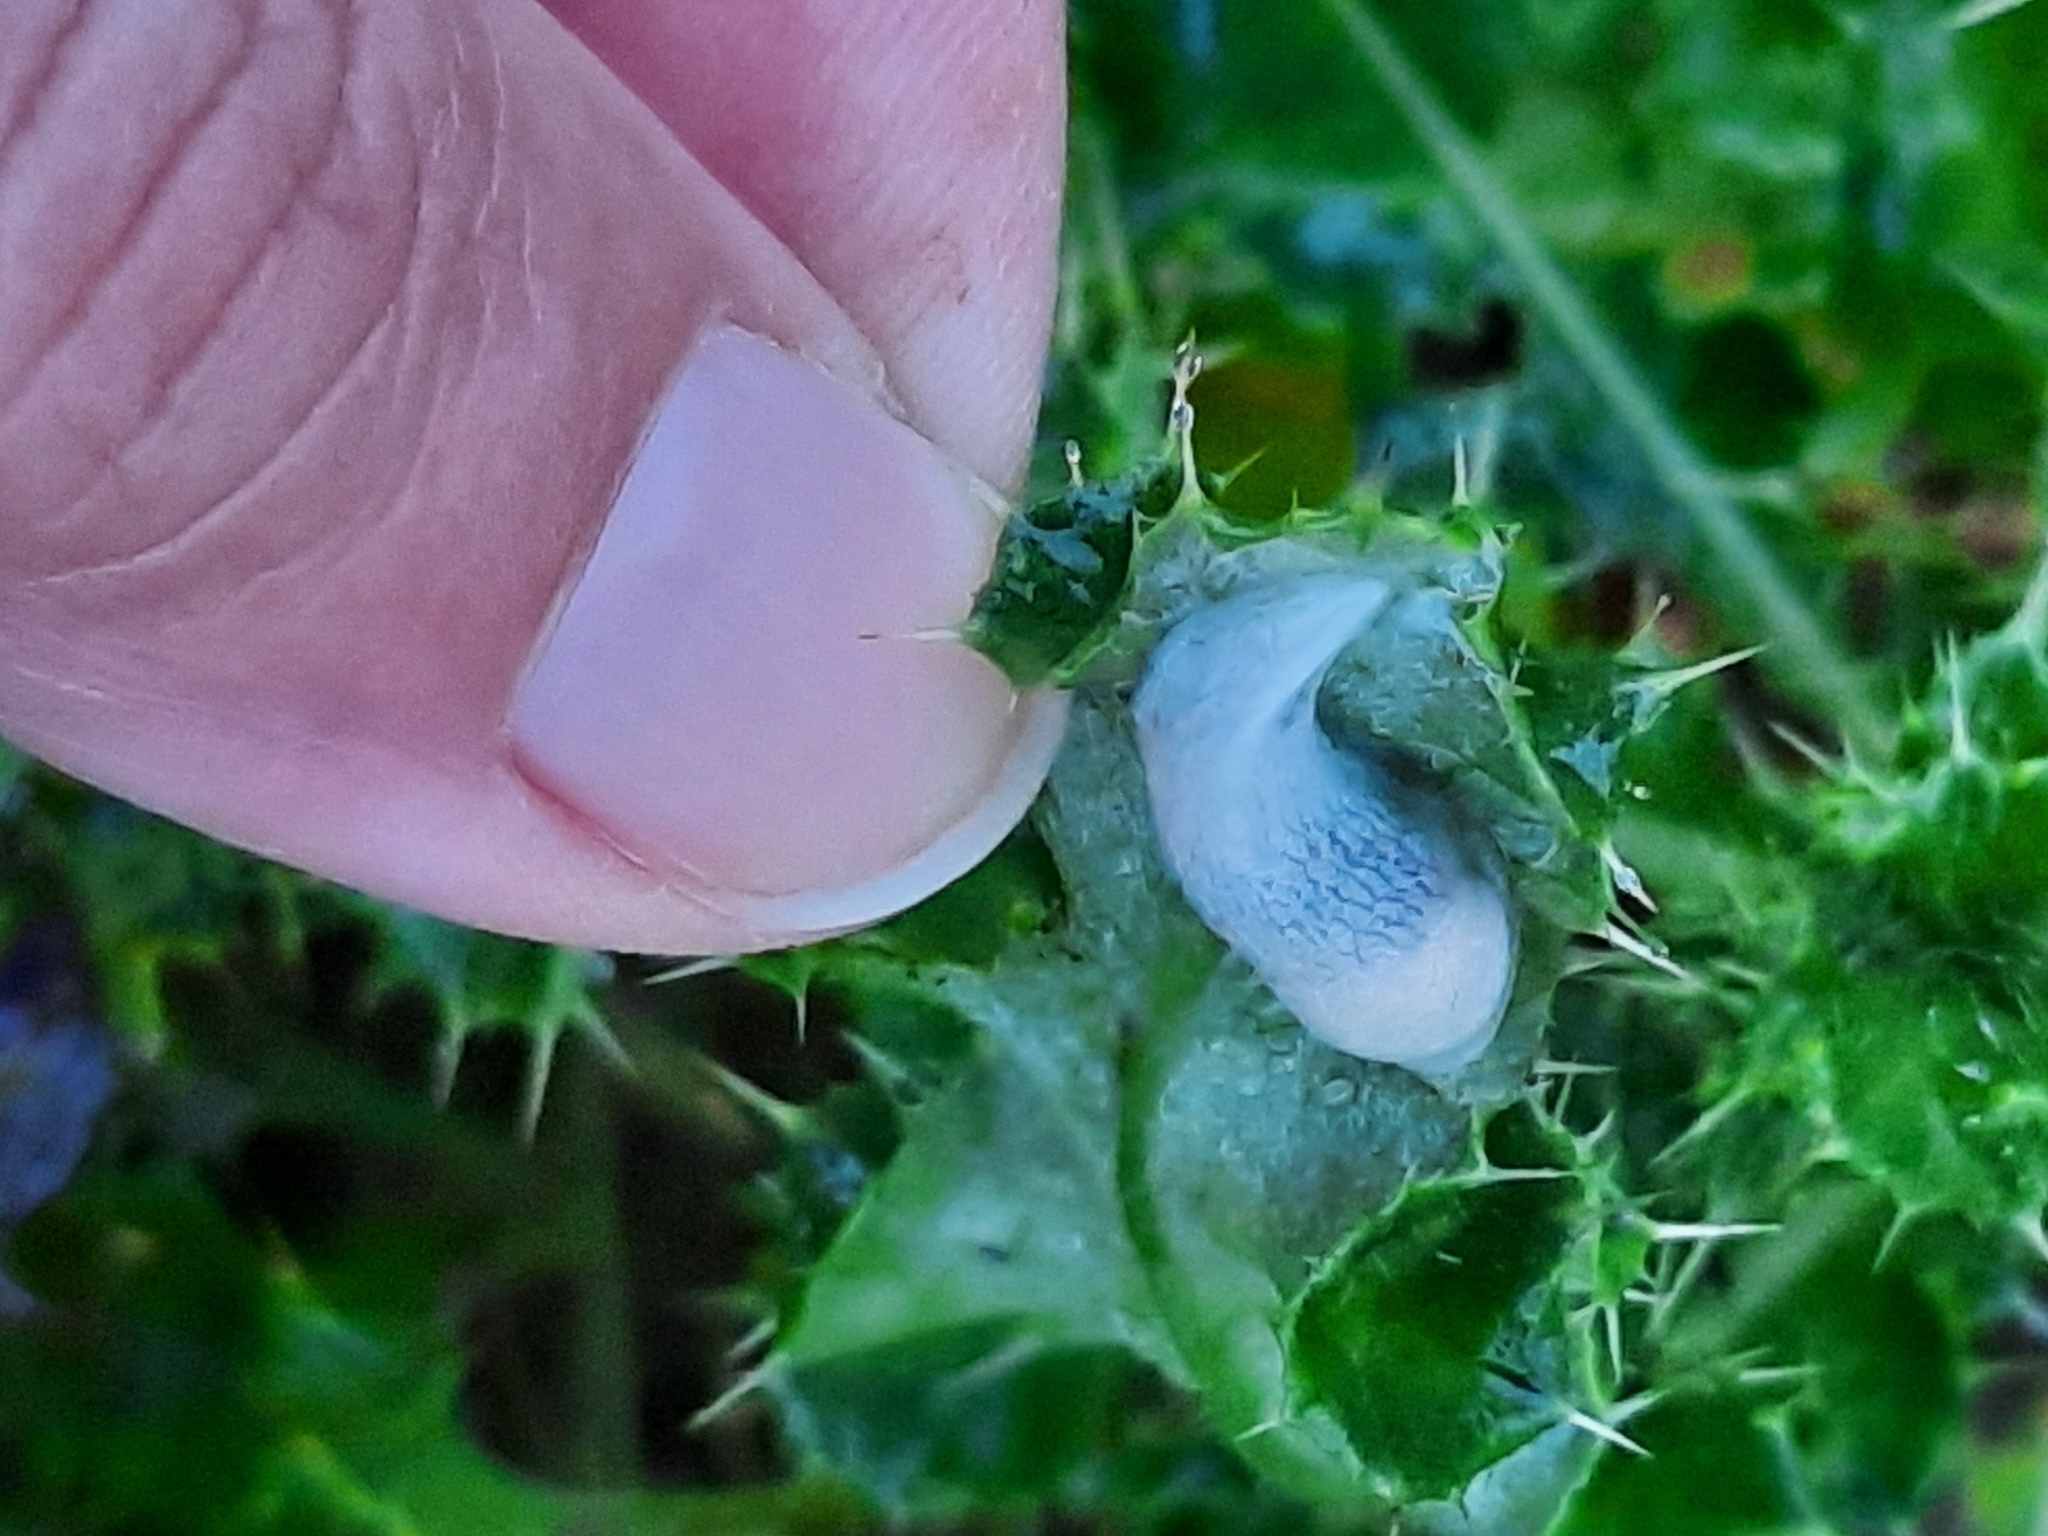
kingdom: Animalia
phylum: Mollusca
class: Gastropoda
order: Stylommatophora
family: Agriolimacidae
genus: Deroceras
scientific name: Deroceras reticulatum
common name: Gray field slug
